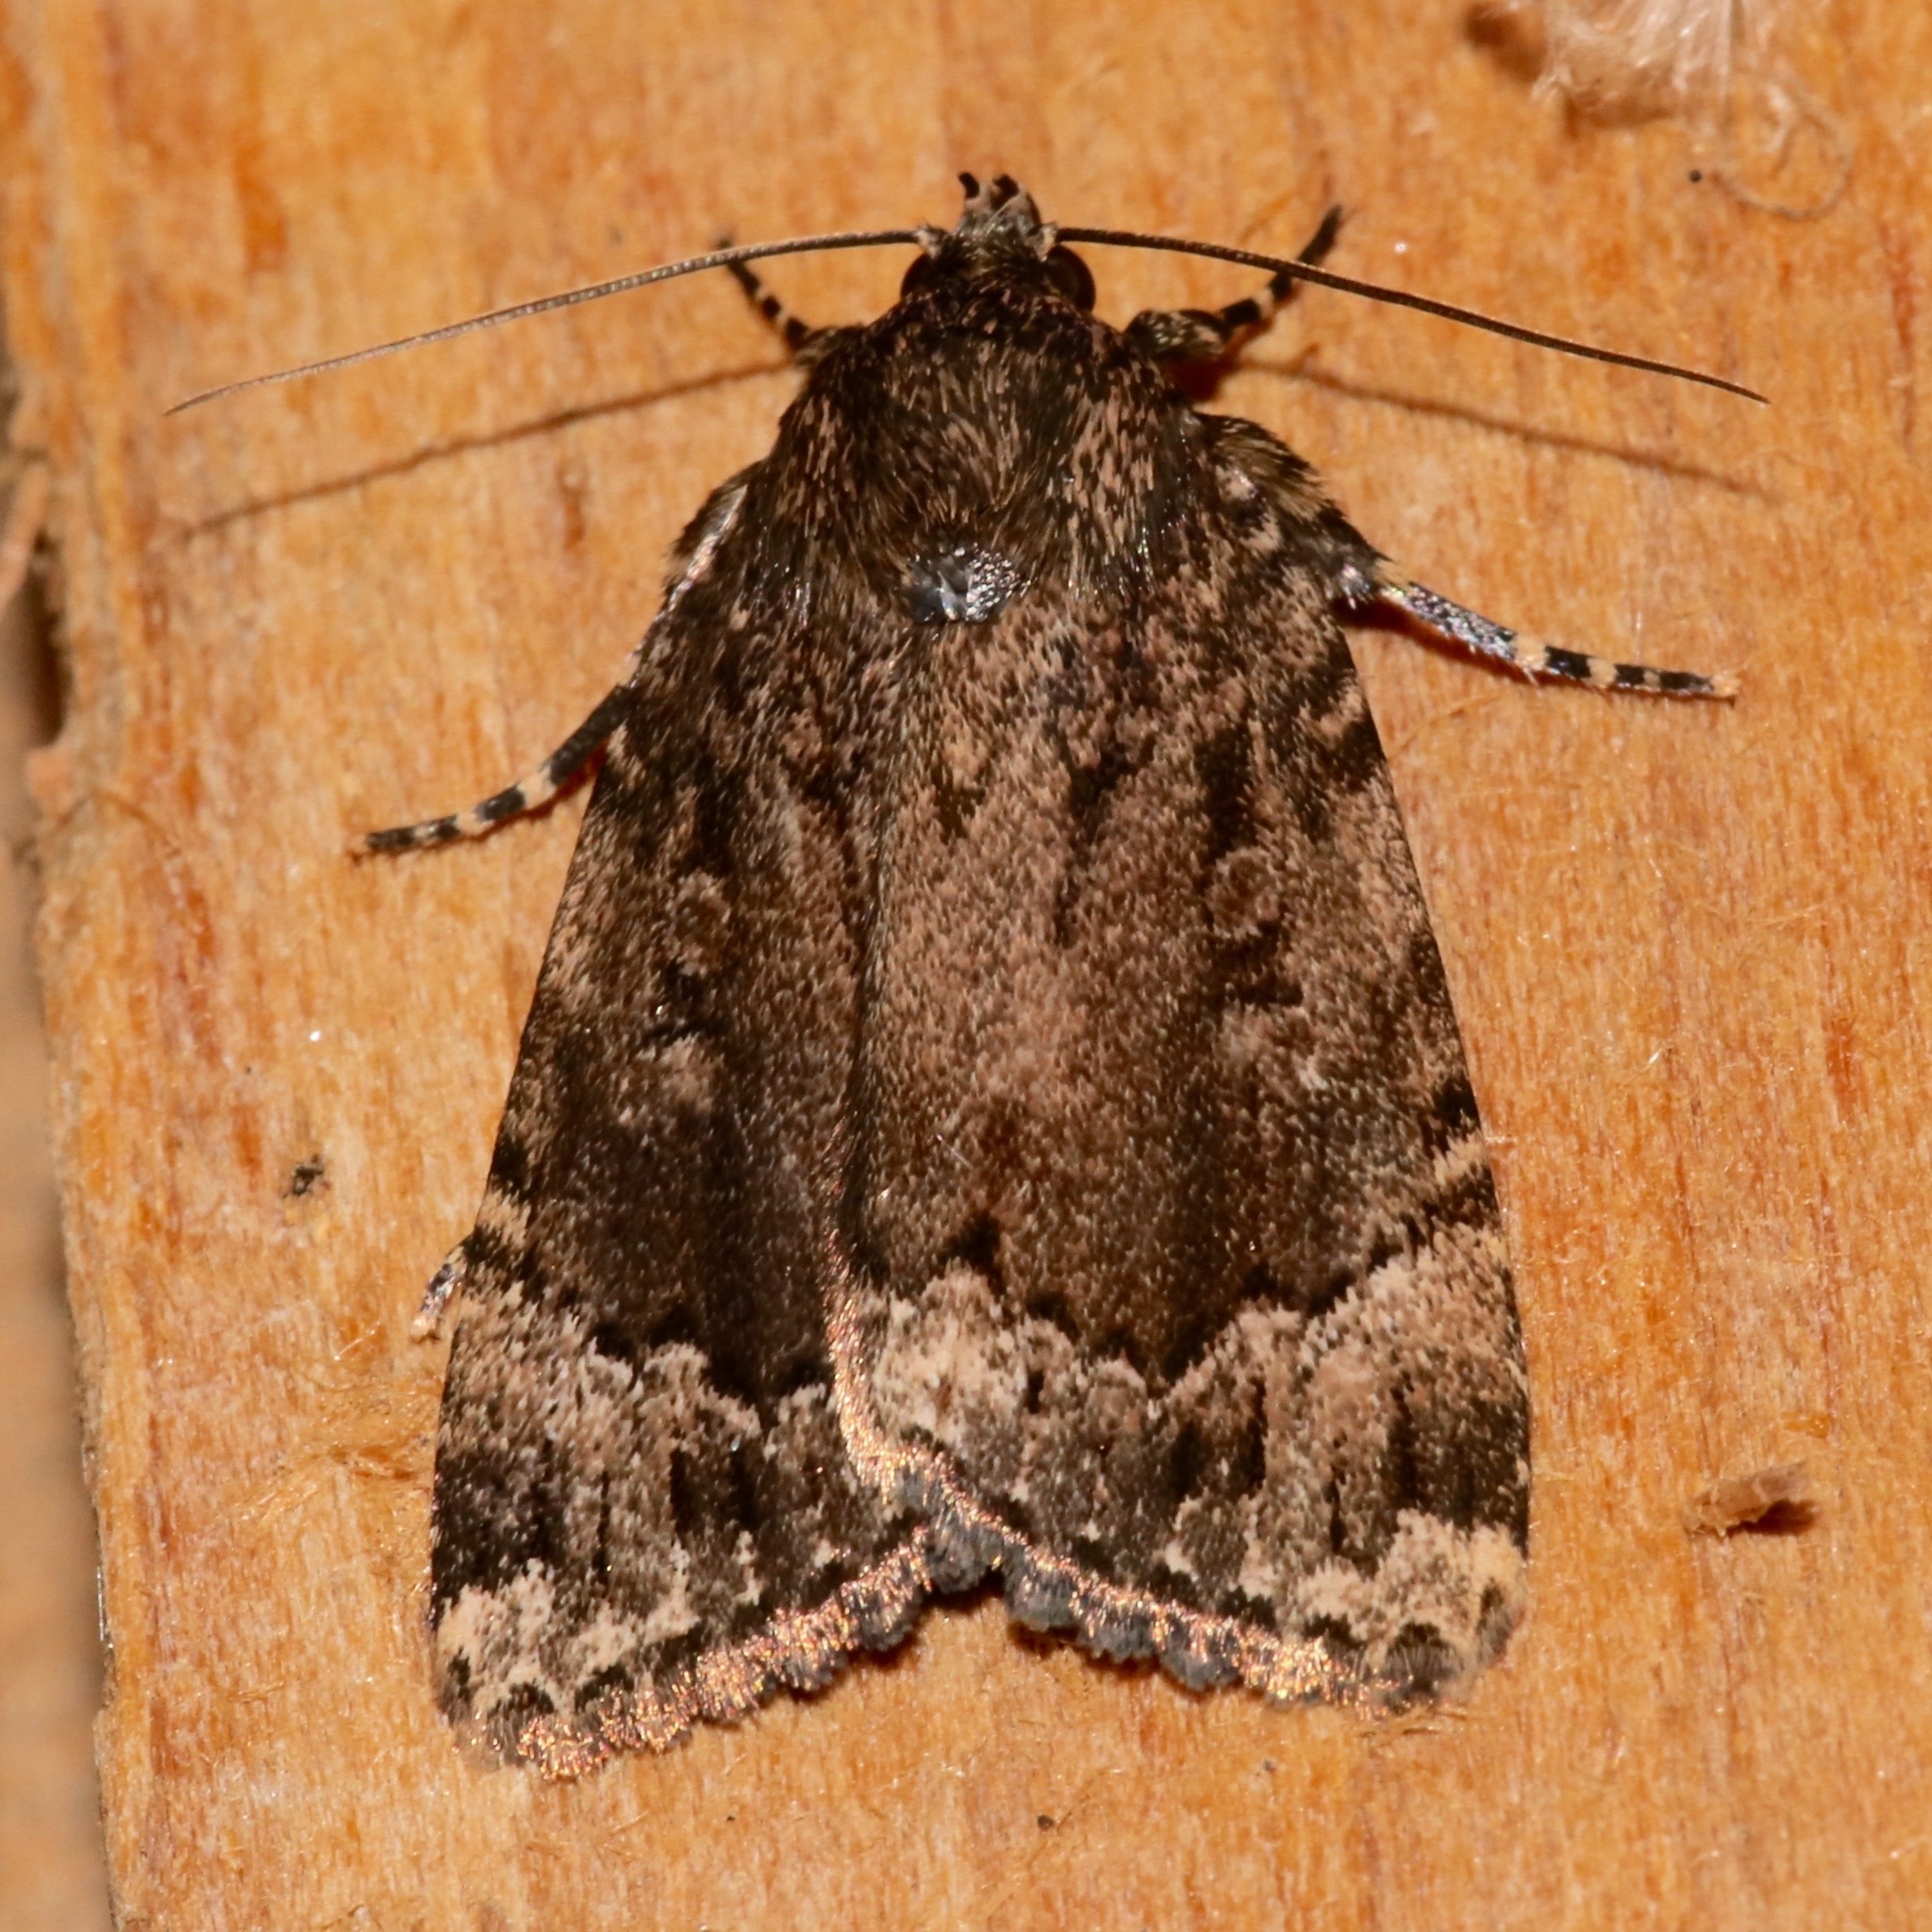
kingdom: Animalia
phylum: Arthropoda
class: Insecta
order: Lepidoptera
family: Noctuidae
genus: Amphipyra
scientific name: Amphipyra pyramidoides
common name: American copper underwing
